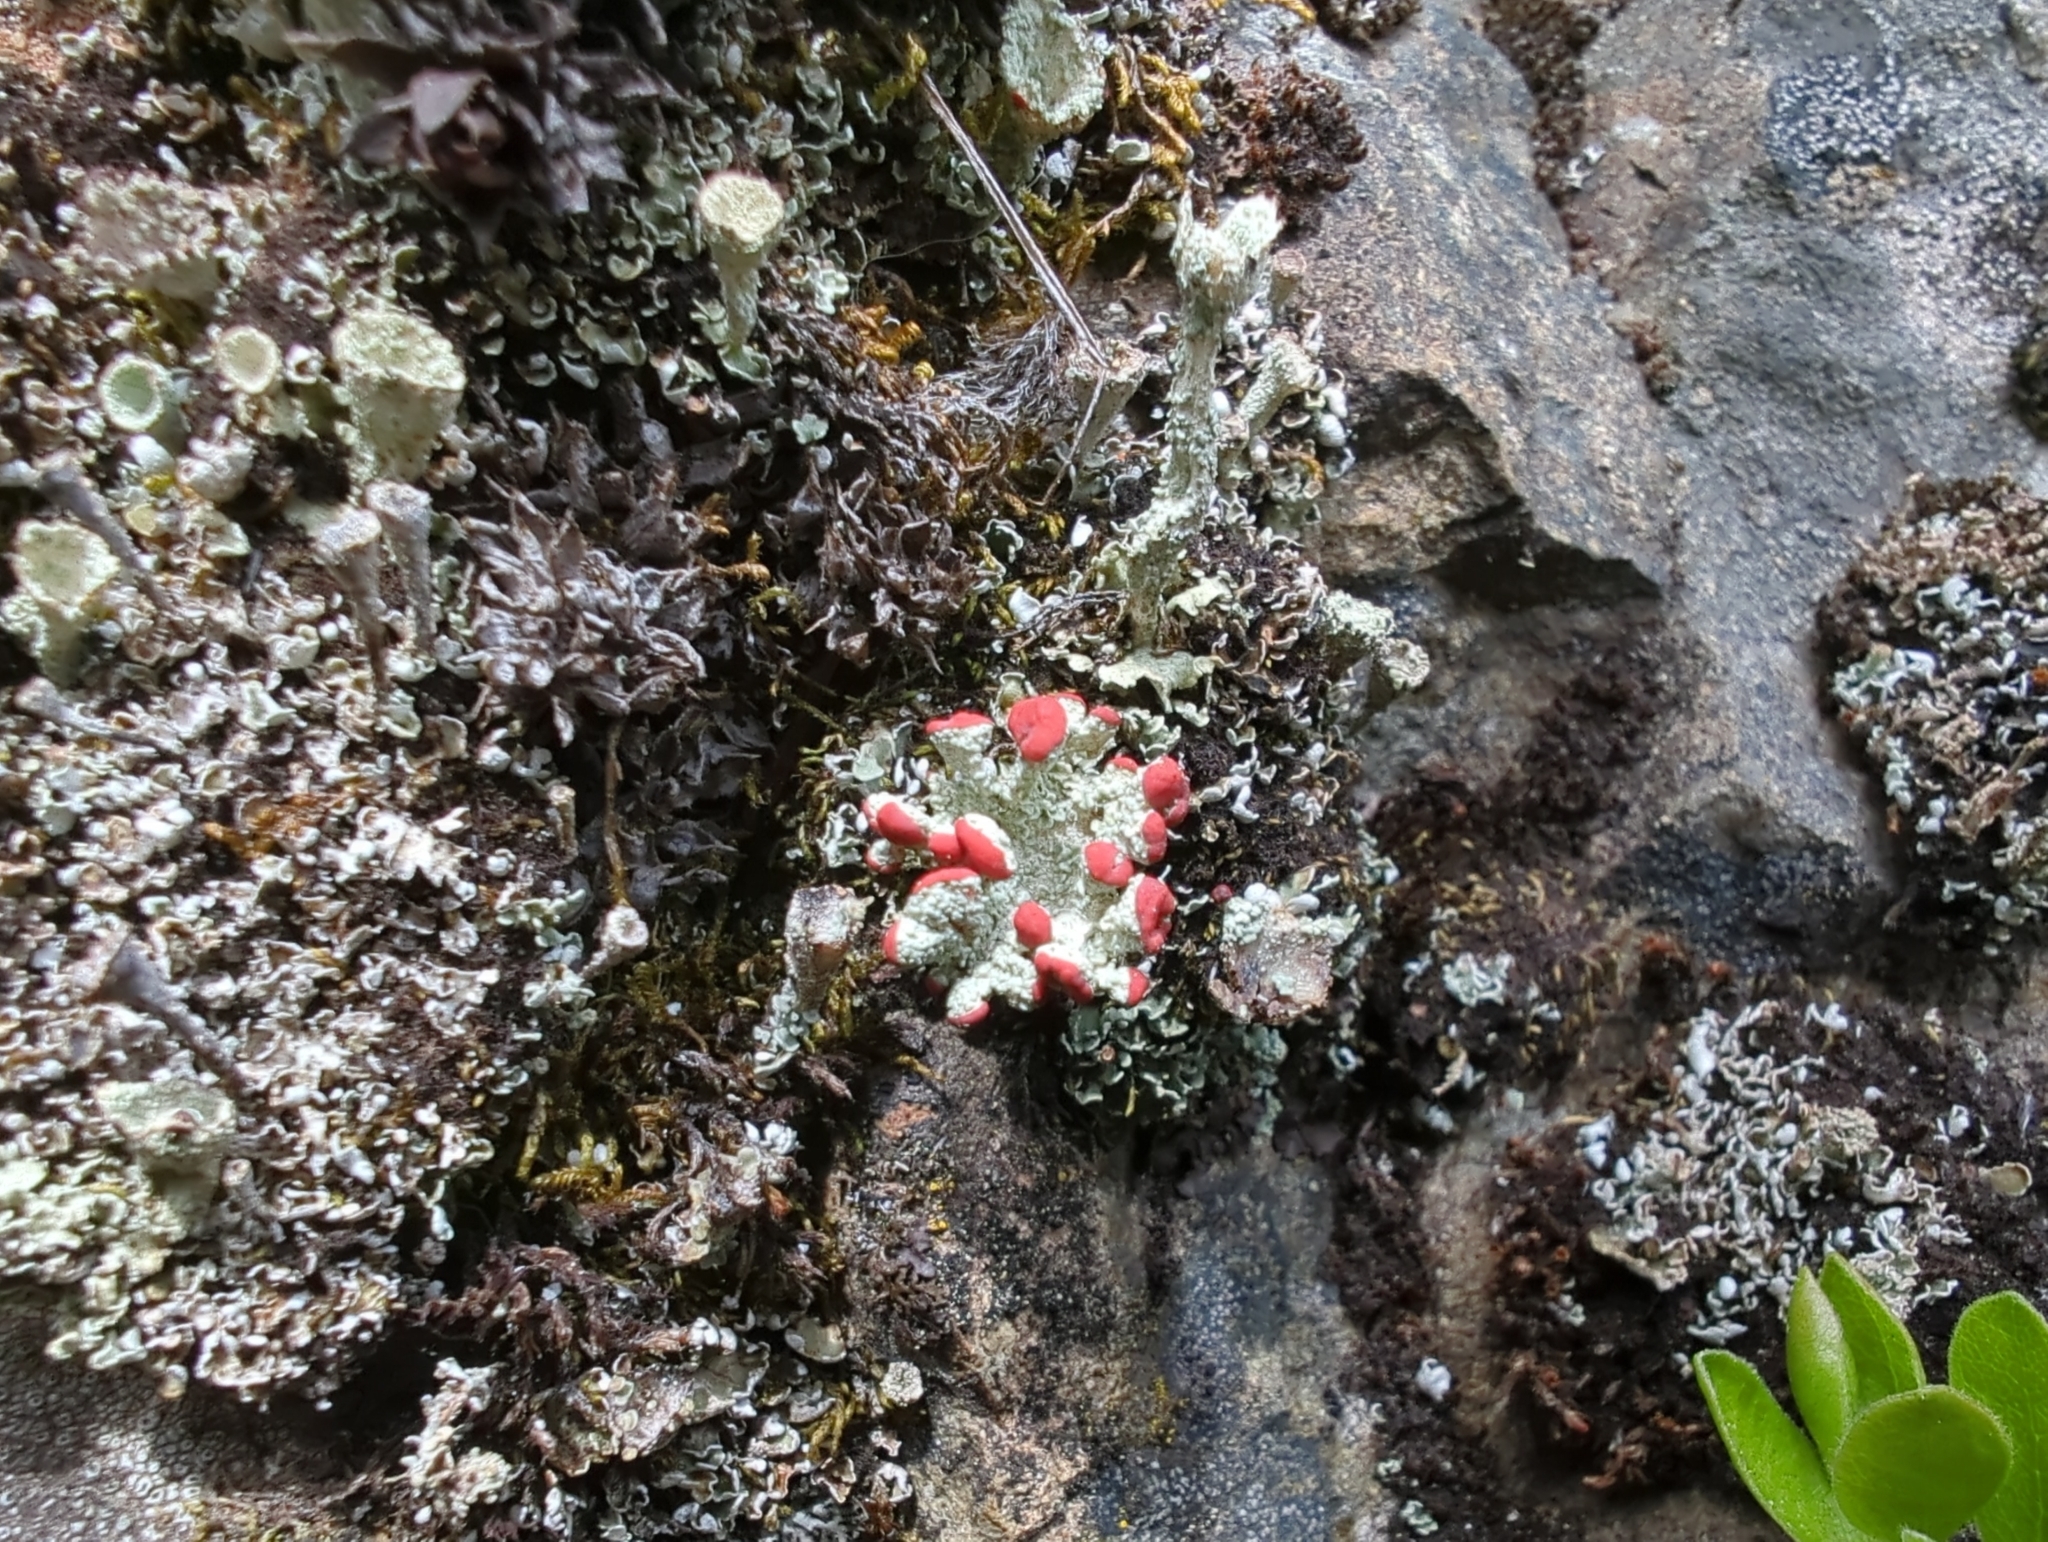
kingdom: Fungi
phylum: Ascomycota
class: Lecanoromycetes
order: Lecanorales
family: Cladoniaceae
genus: Cladonia
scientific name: Cladonia pleurota
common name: Red-fruited pixie cup
